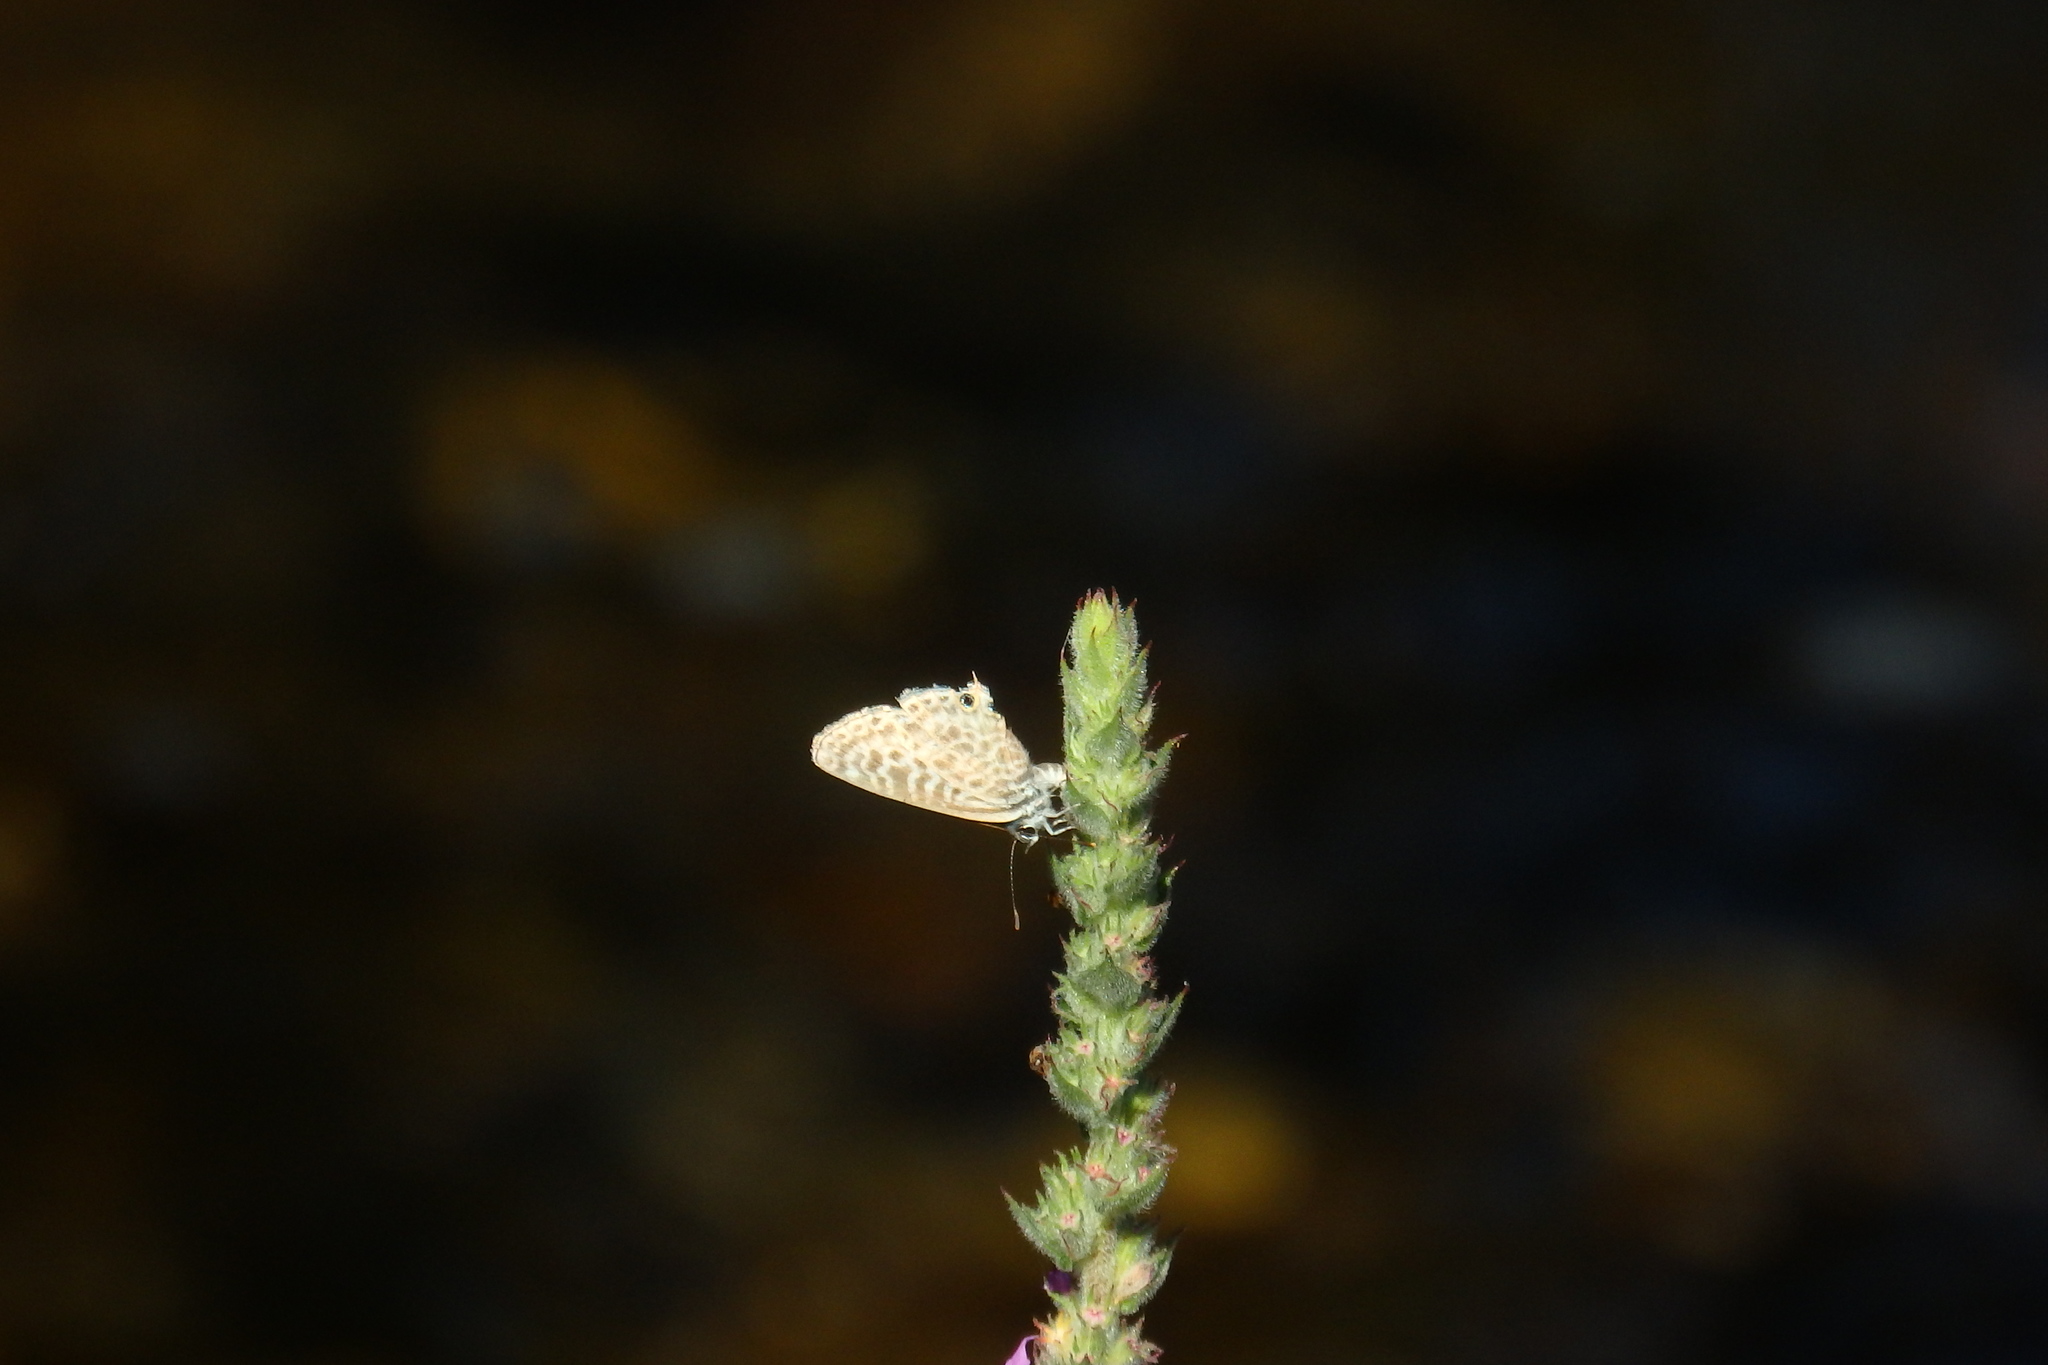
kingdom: Animalia
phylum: Arthropoda
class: Insecta
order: Lepidoptera
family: Lycaenidae
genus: Leptotes
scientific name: Leptotes pirithous
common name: Lang's short-tailed blue
